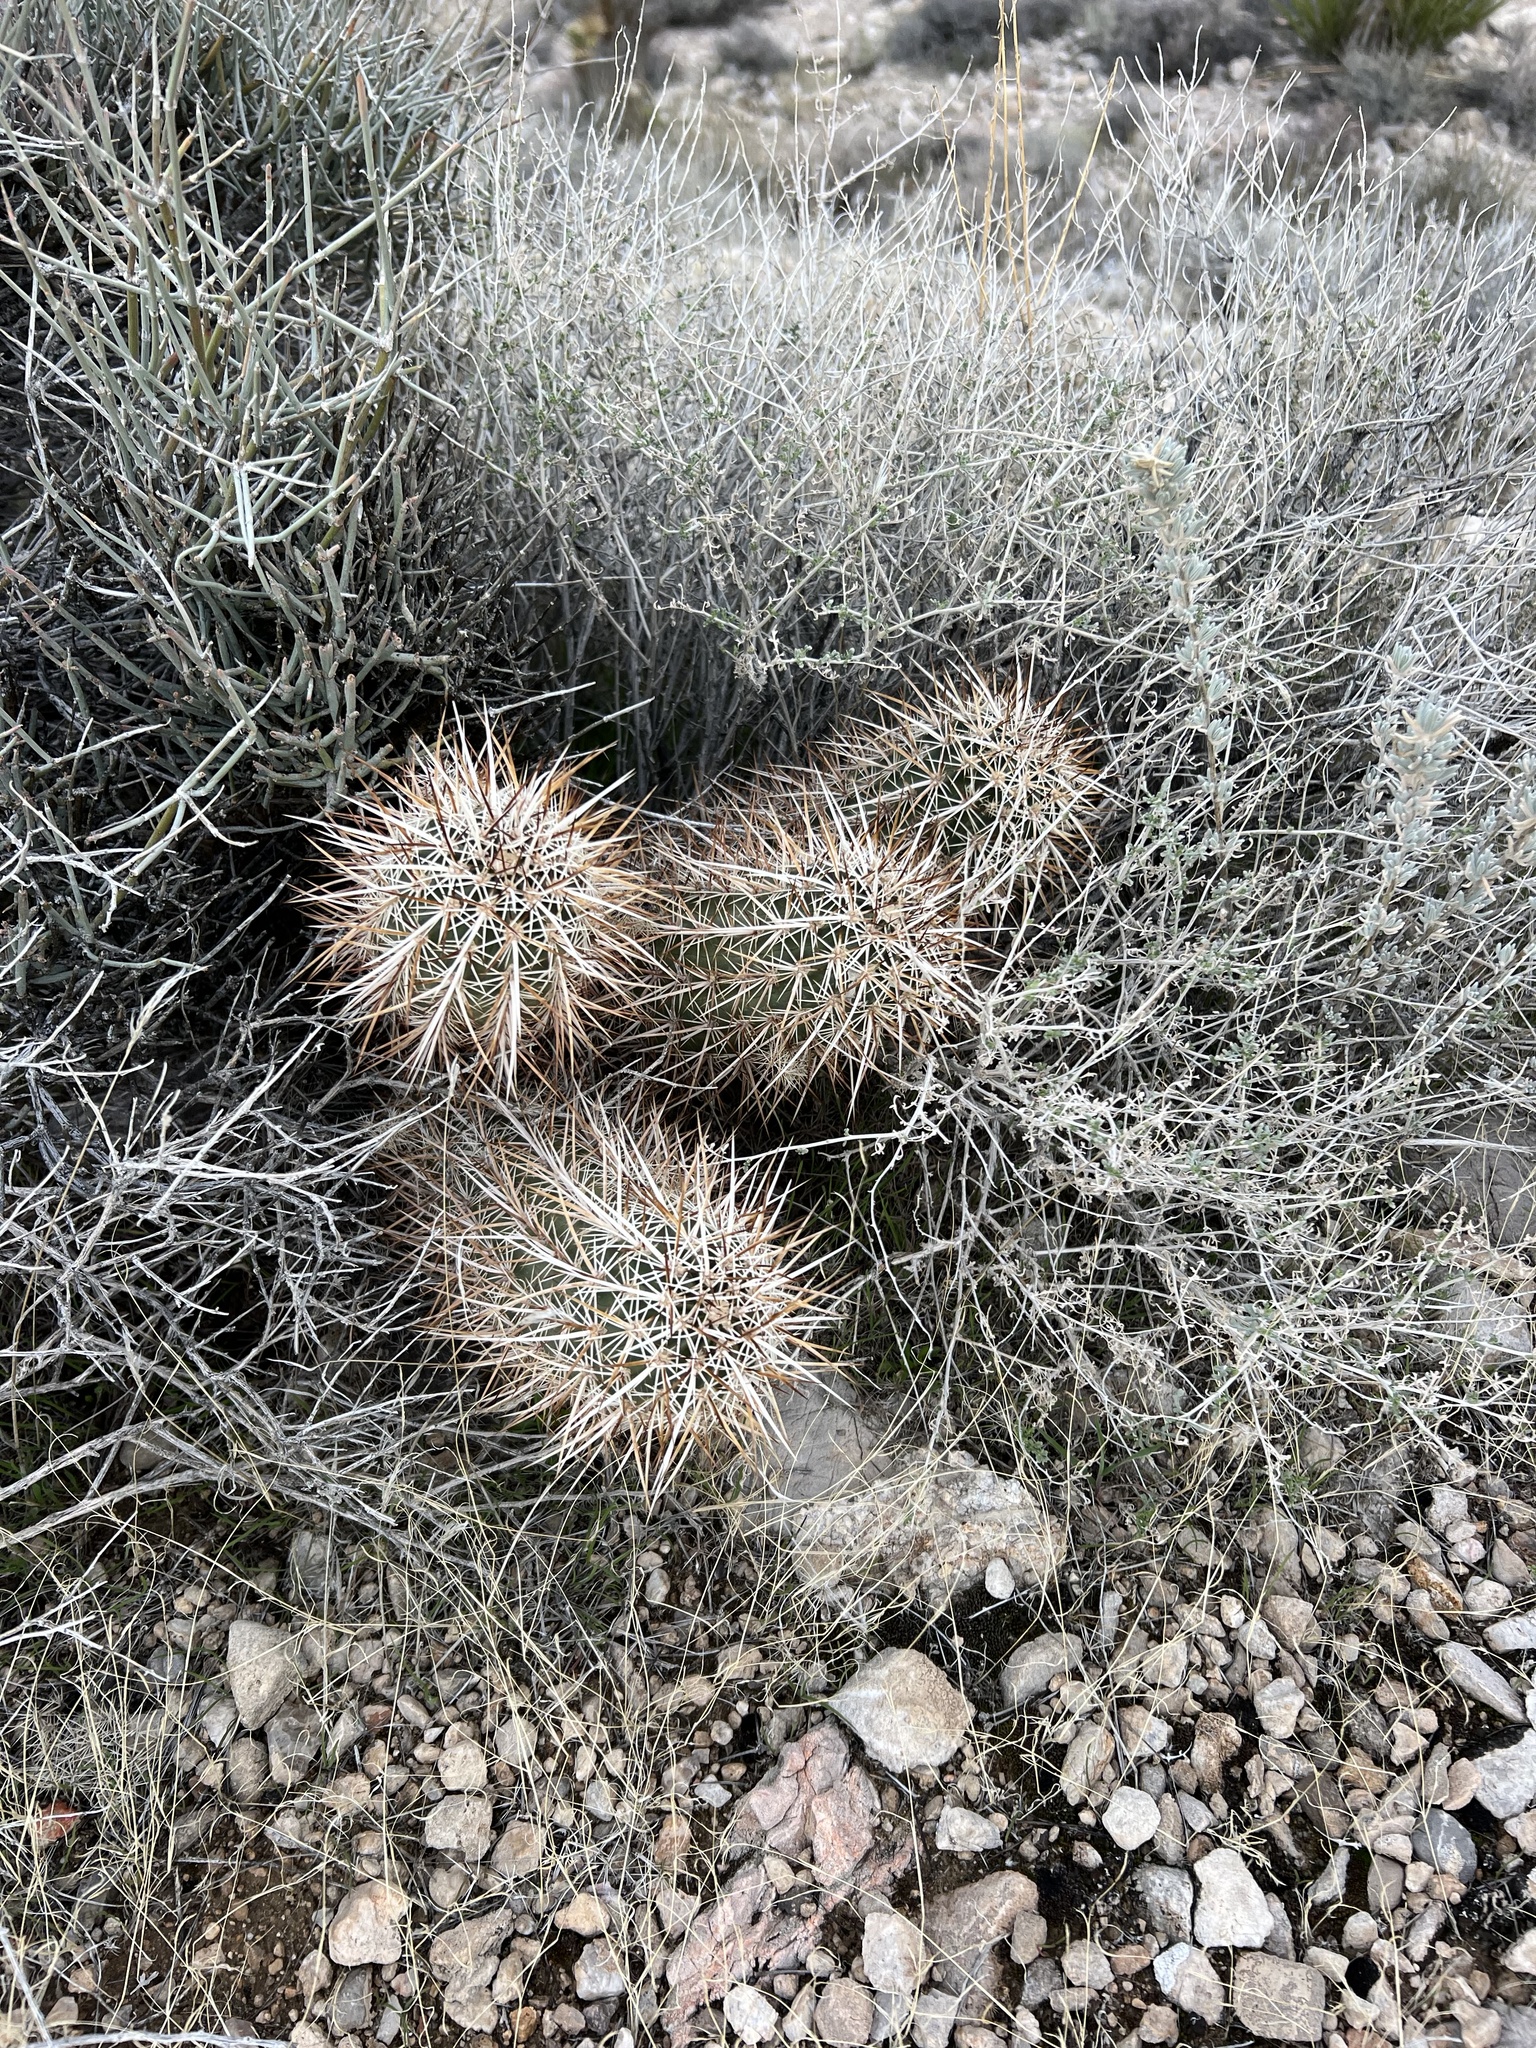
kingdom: Plantae
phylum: Tracheophyta
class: Magnoliopsida
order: Caryophyllales
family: Cactaceae
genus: Echinocereus
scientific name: Echinocereus engelmannii
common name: Engelmann's hedgehog cactus
